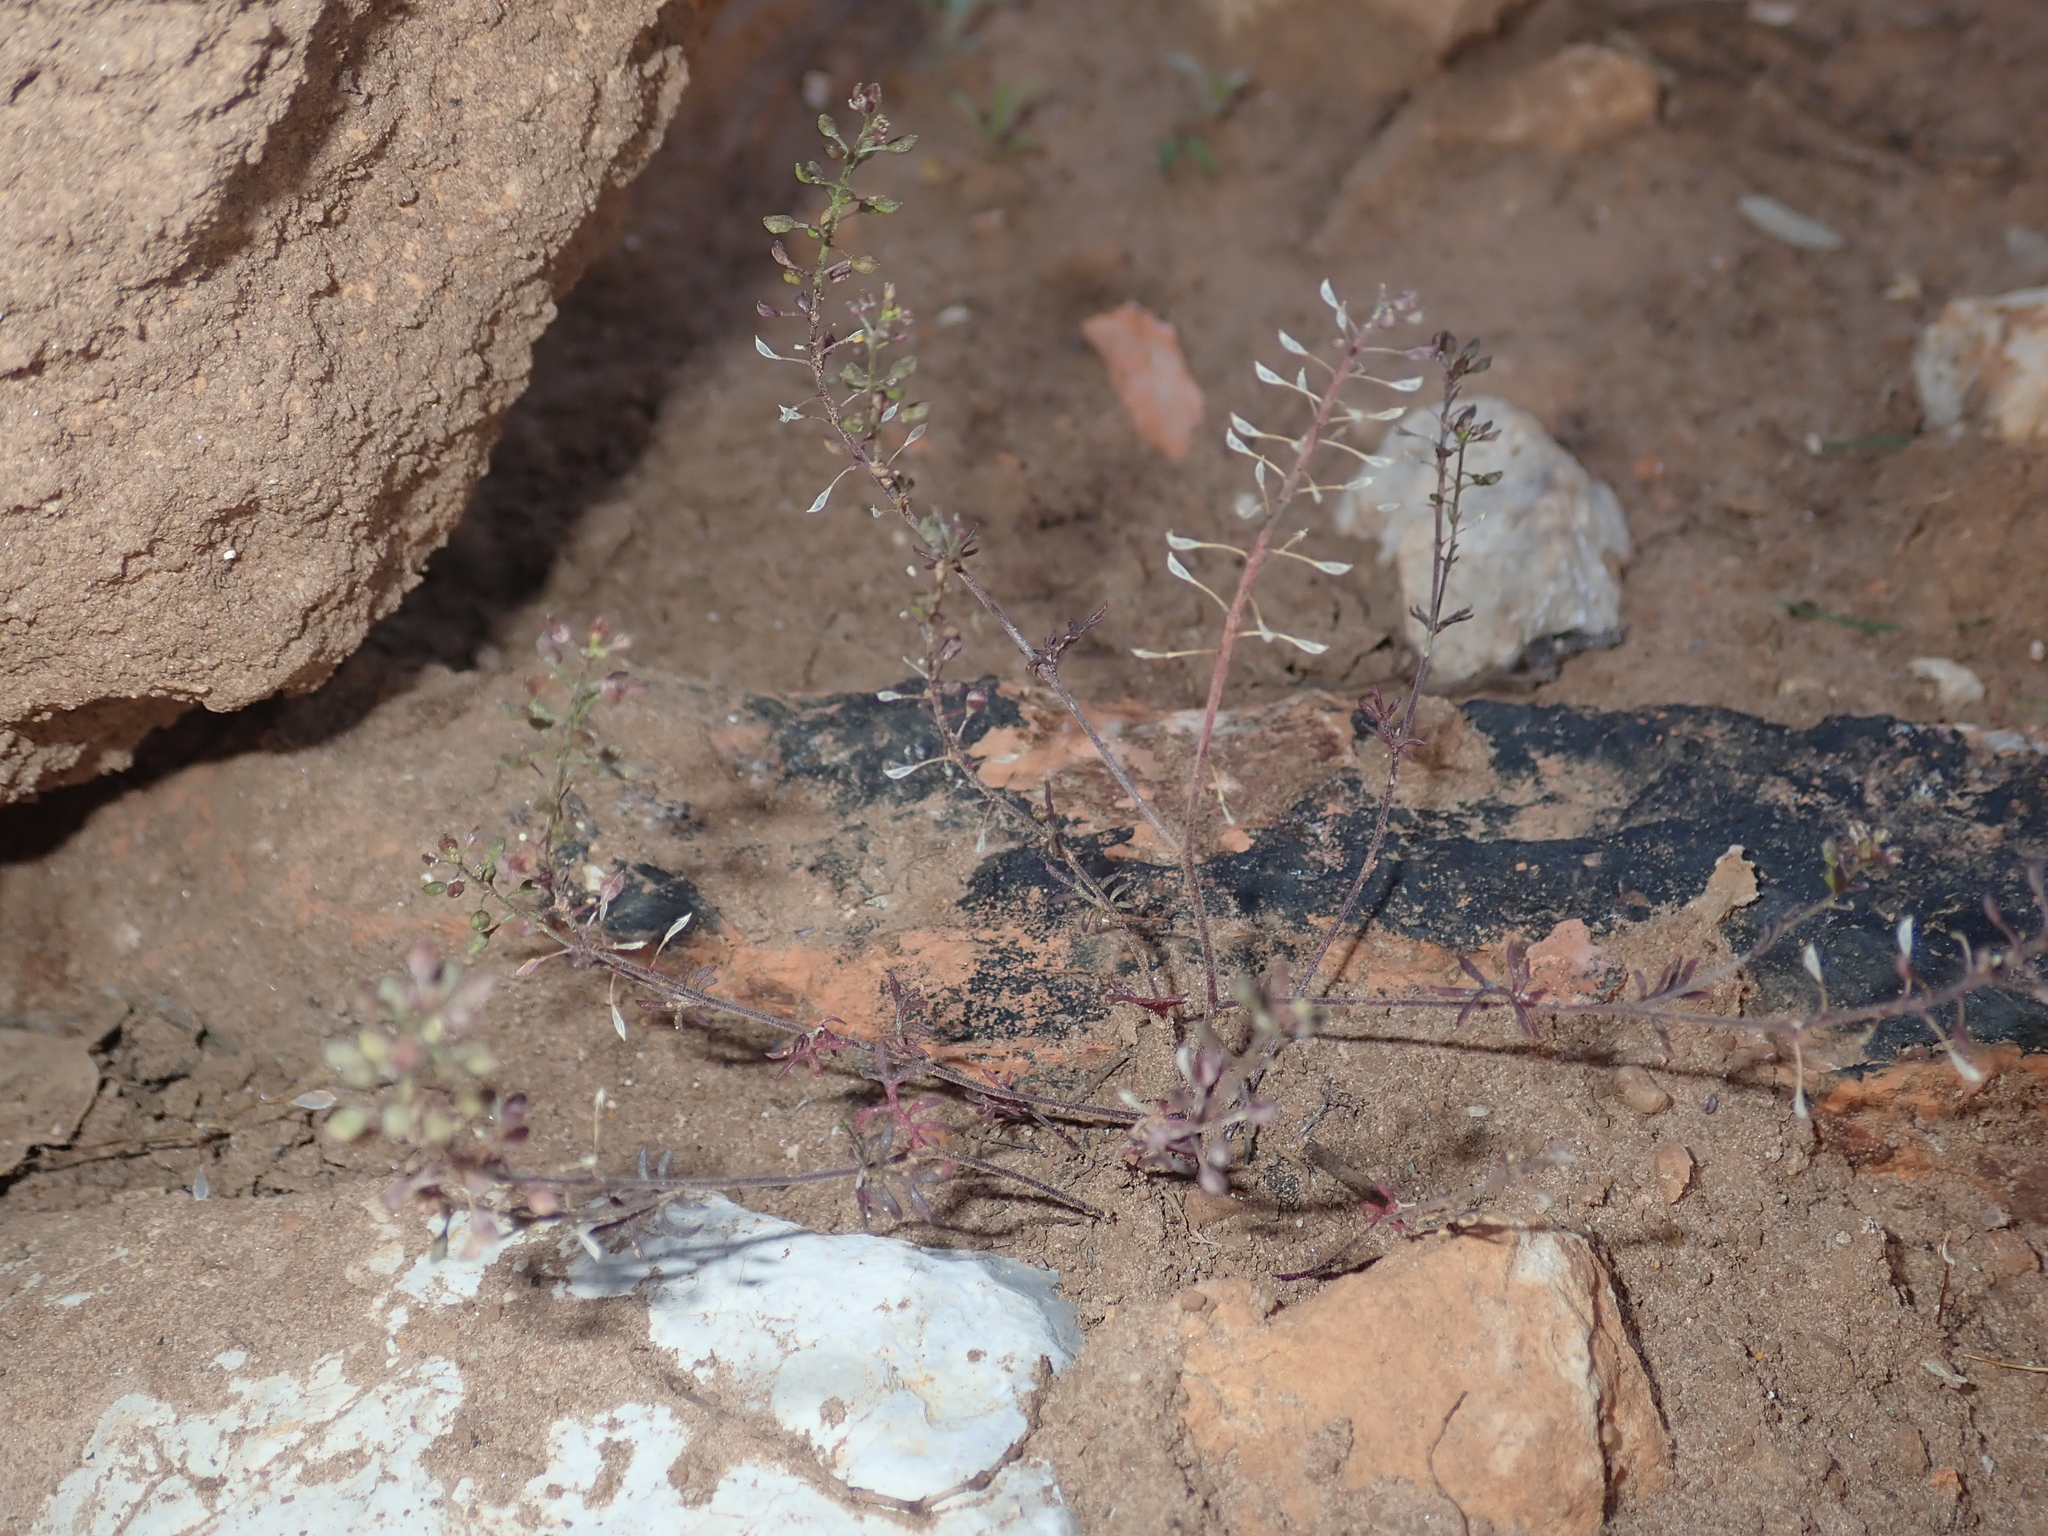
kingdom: Plantae
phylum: Tracheophyta
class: Magnoliopsida
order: Brassicales
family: Brassicaceae
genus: Hornungia
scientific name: Hornungia petraea
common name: Hutchinsia
